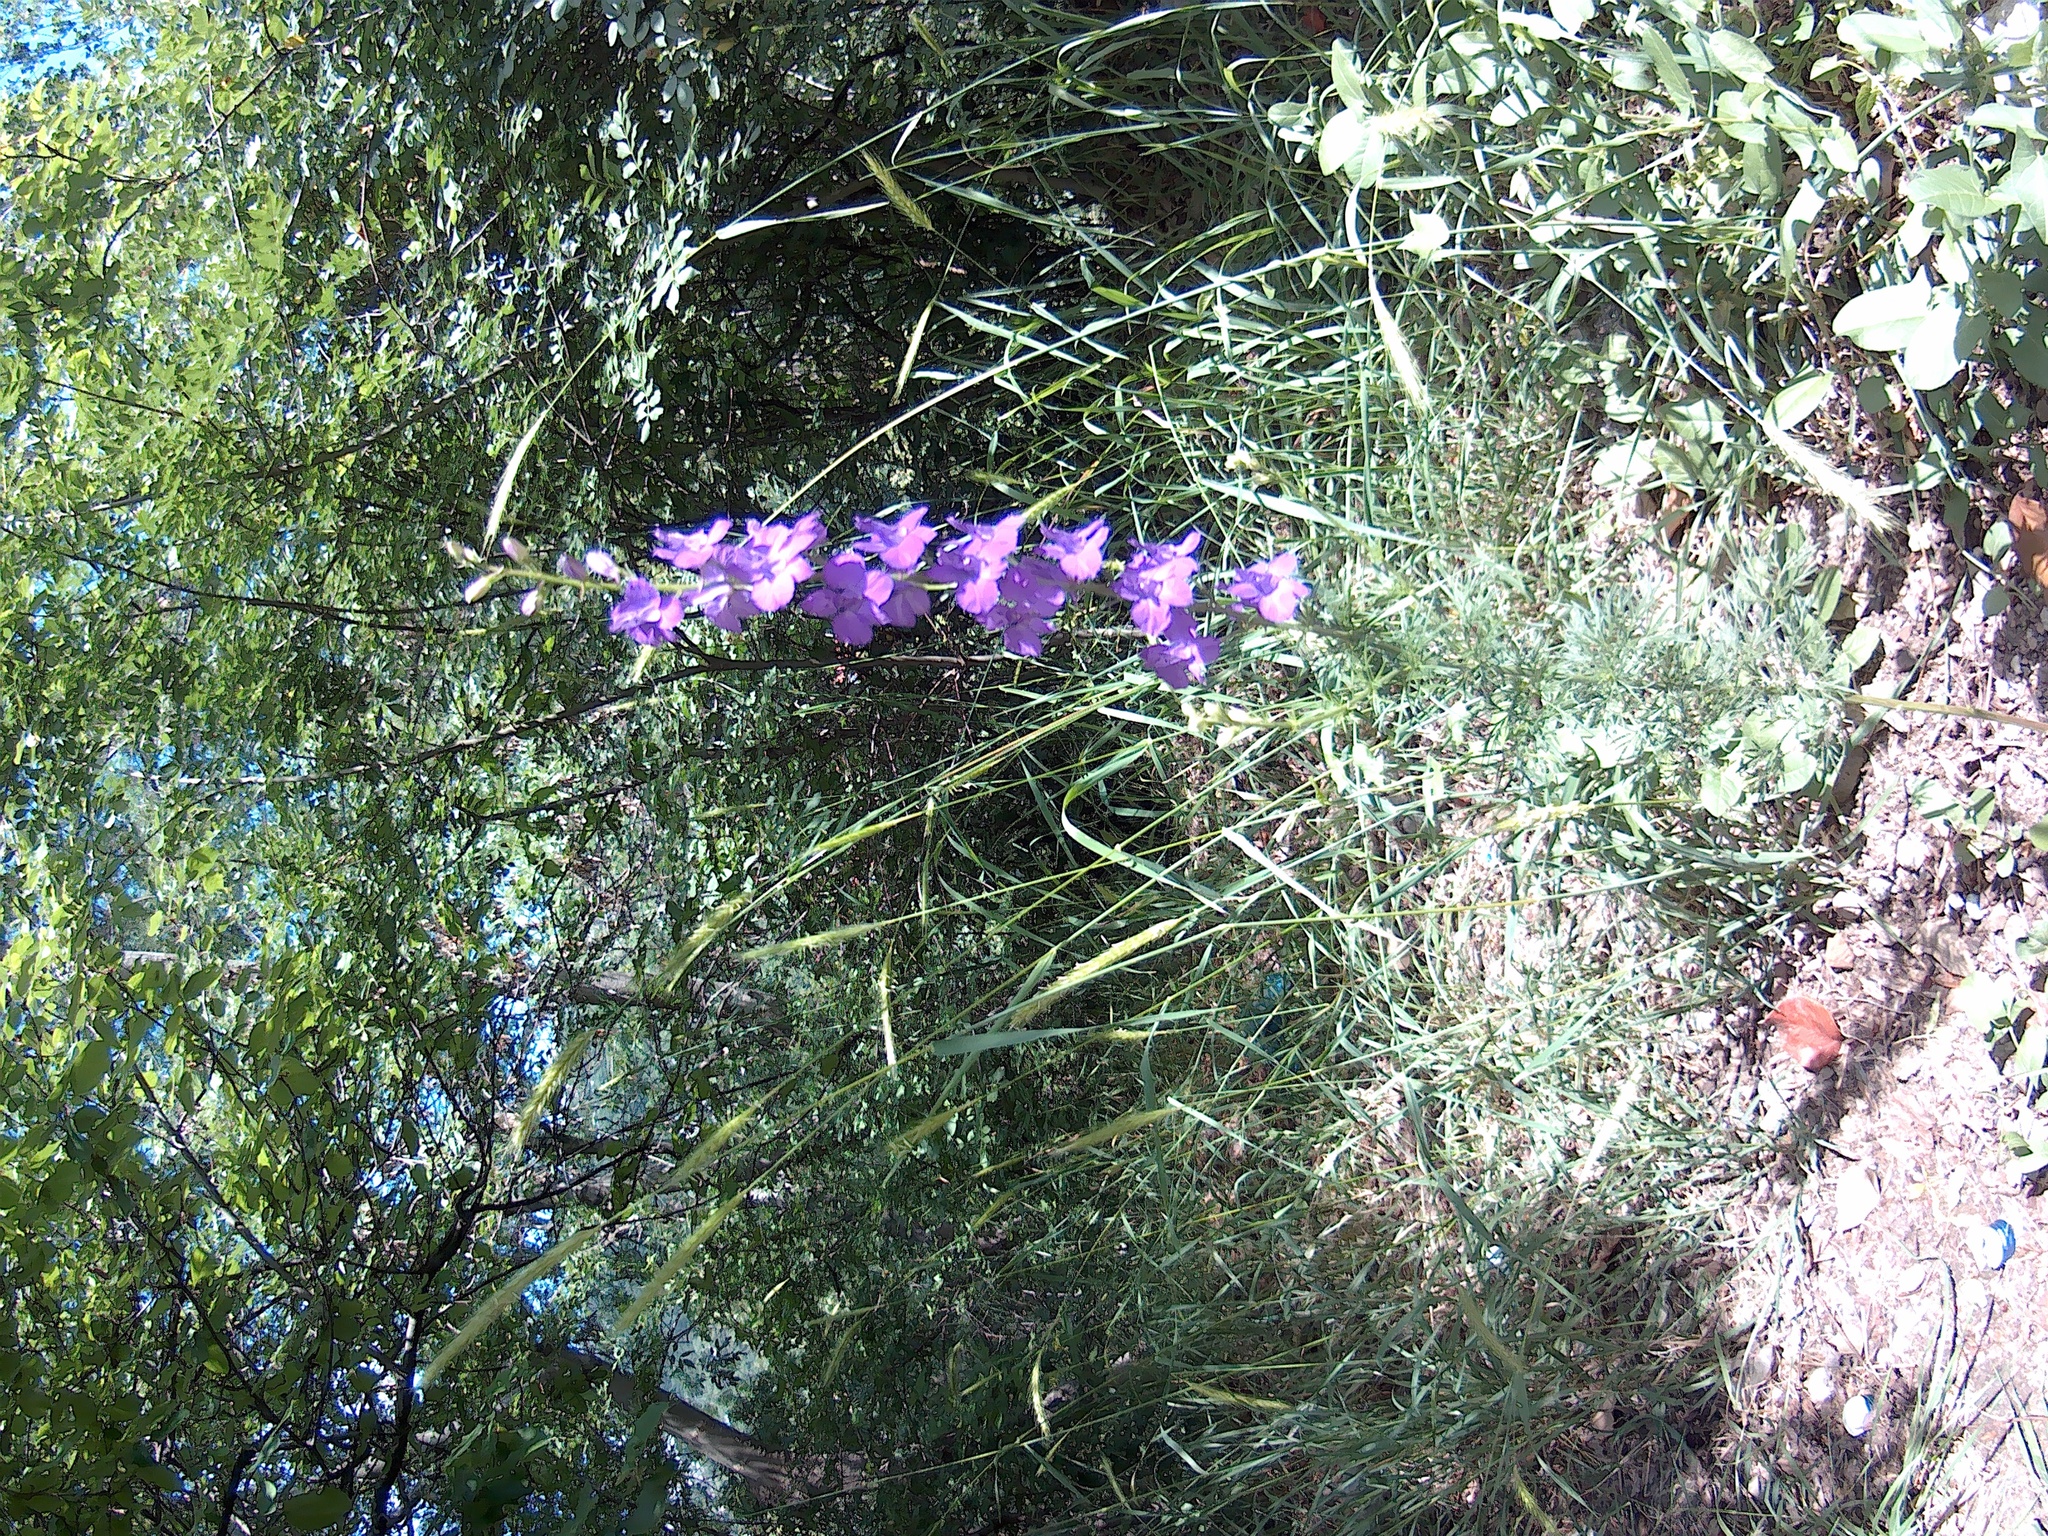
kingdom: Plantae
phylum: Tracheophyta
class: Magnoliopsida
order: Ranunculales
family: Ranunculaceae
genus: Delphinium
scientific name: Delphinium ajacis
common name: Doubtful knight's-spur
